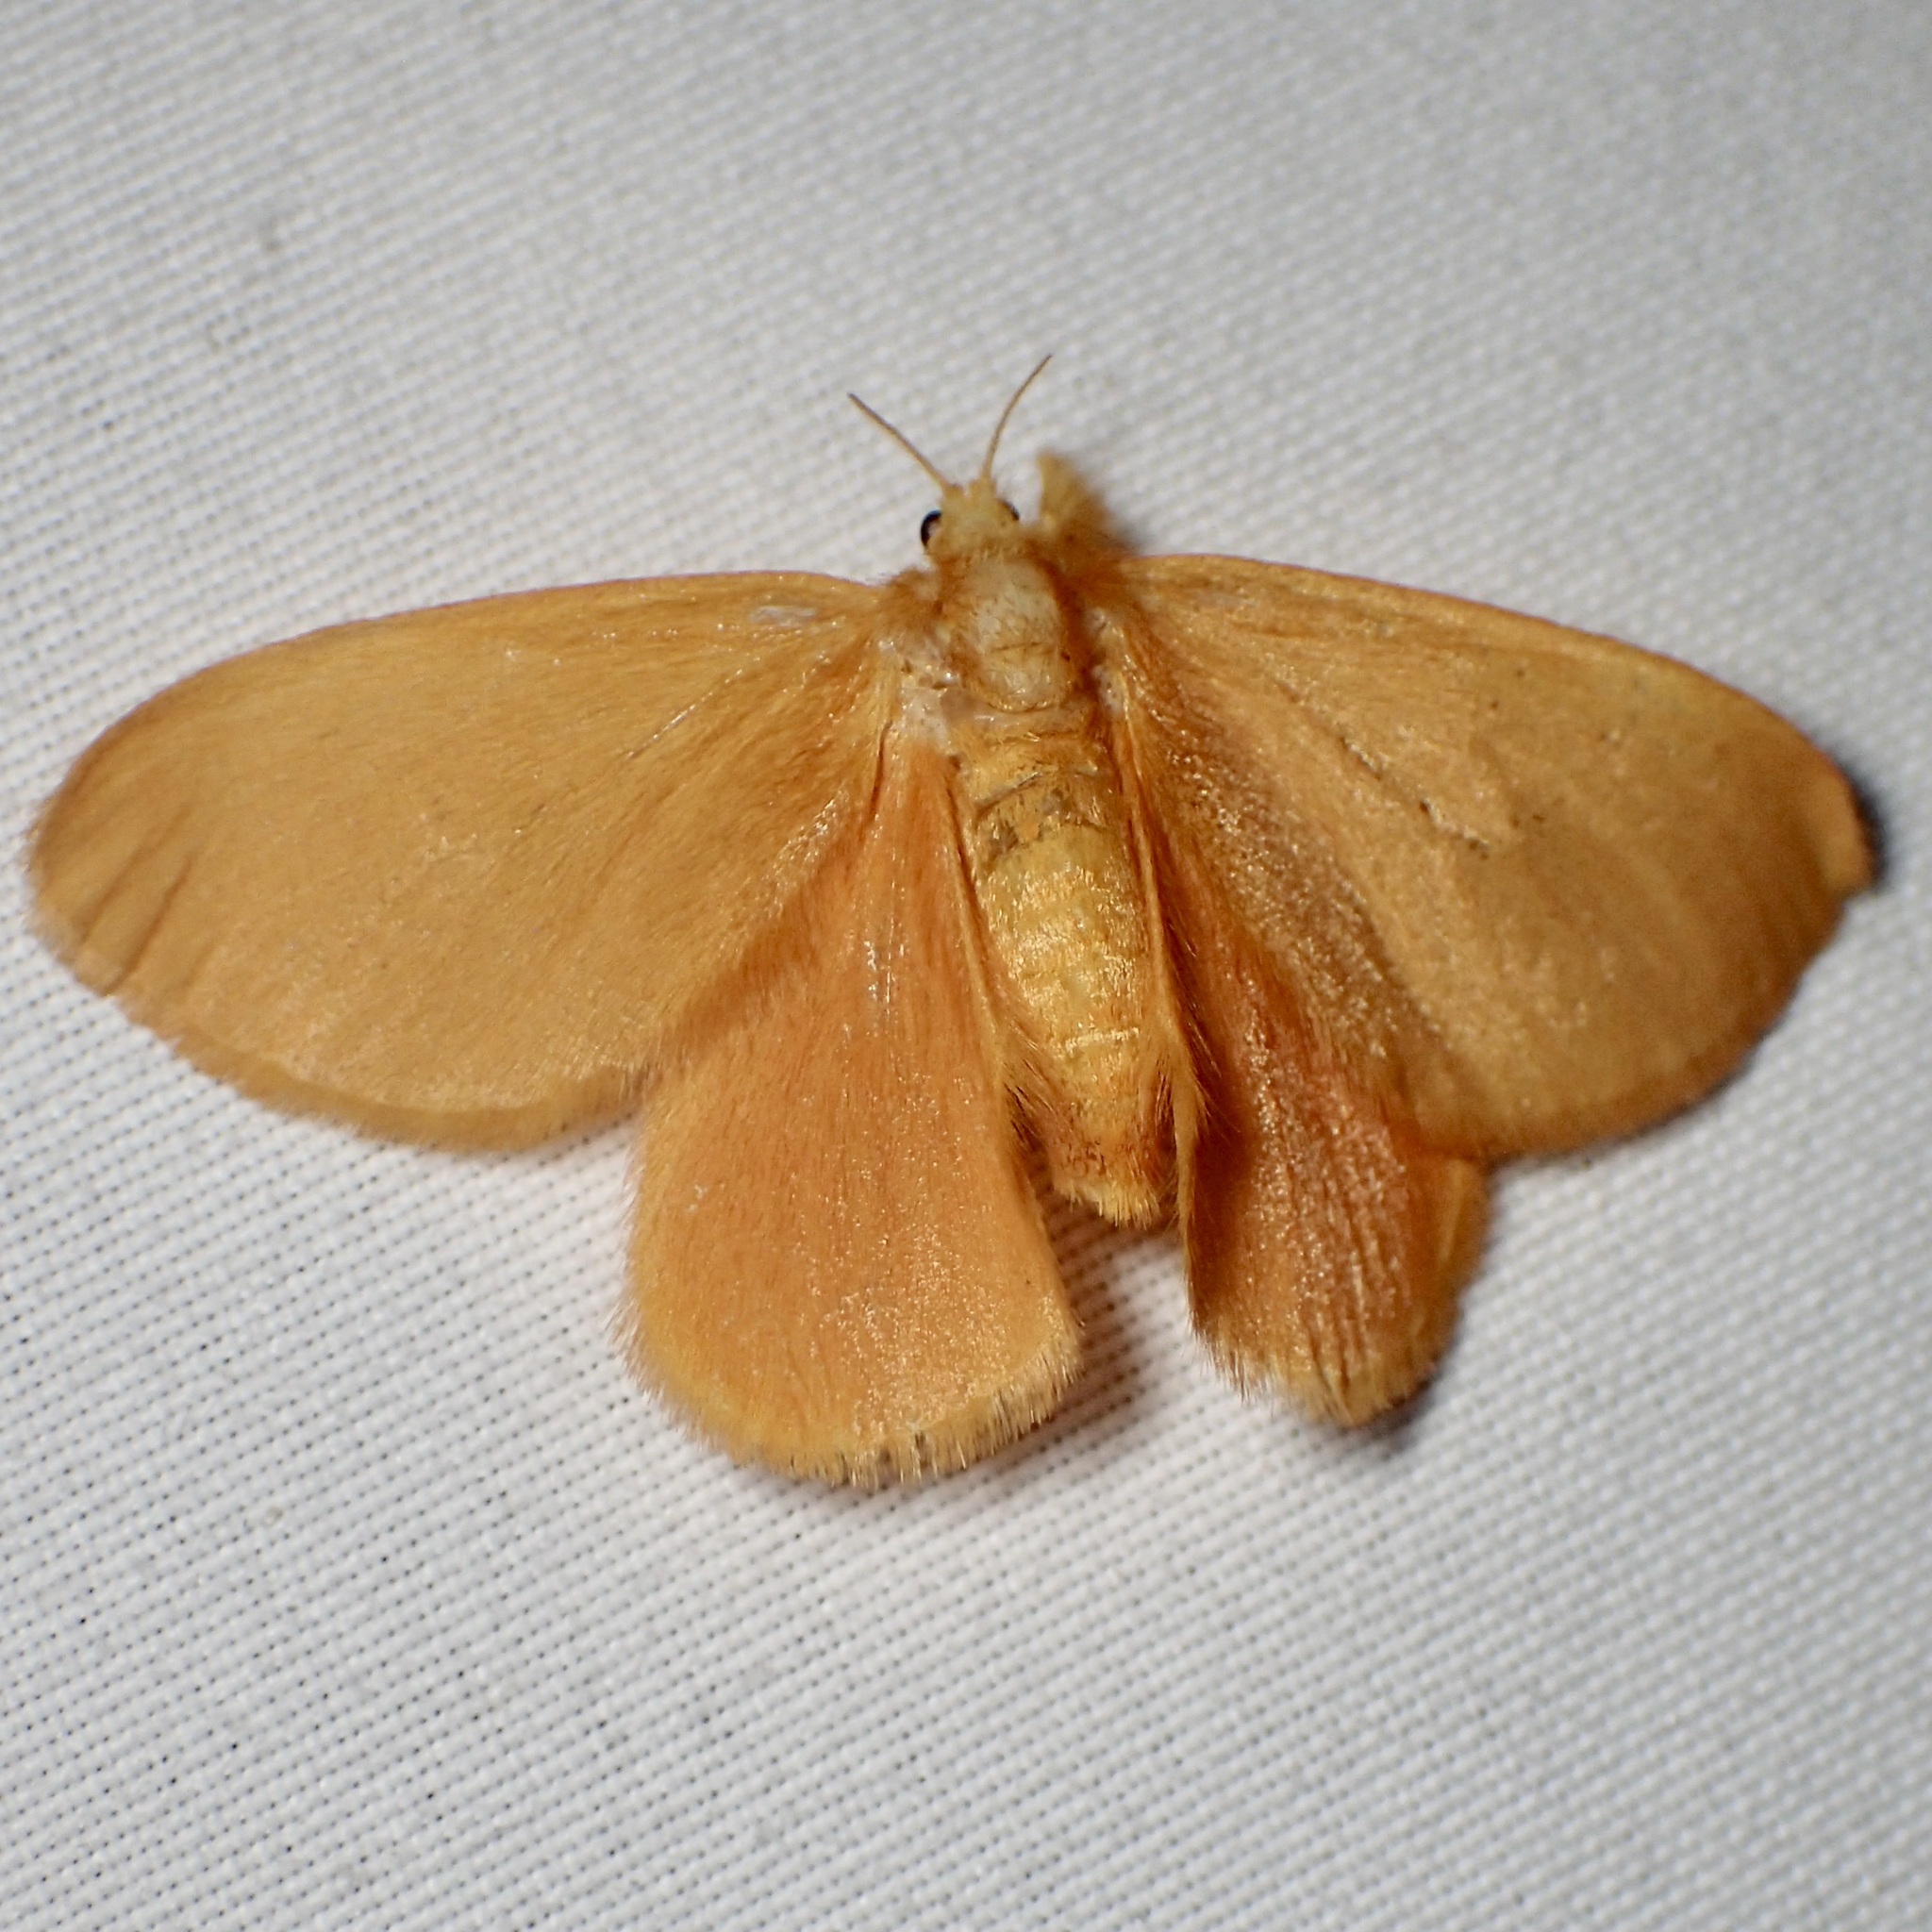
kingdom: Animalia
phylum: Arthropoda
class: Insecta
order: Lepidoptera
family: Dalceridae
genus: Dalcerides
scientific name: Dalcerides ingenita
